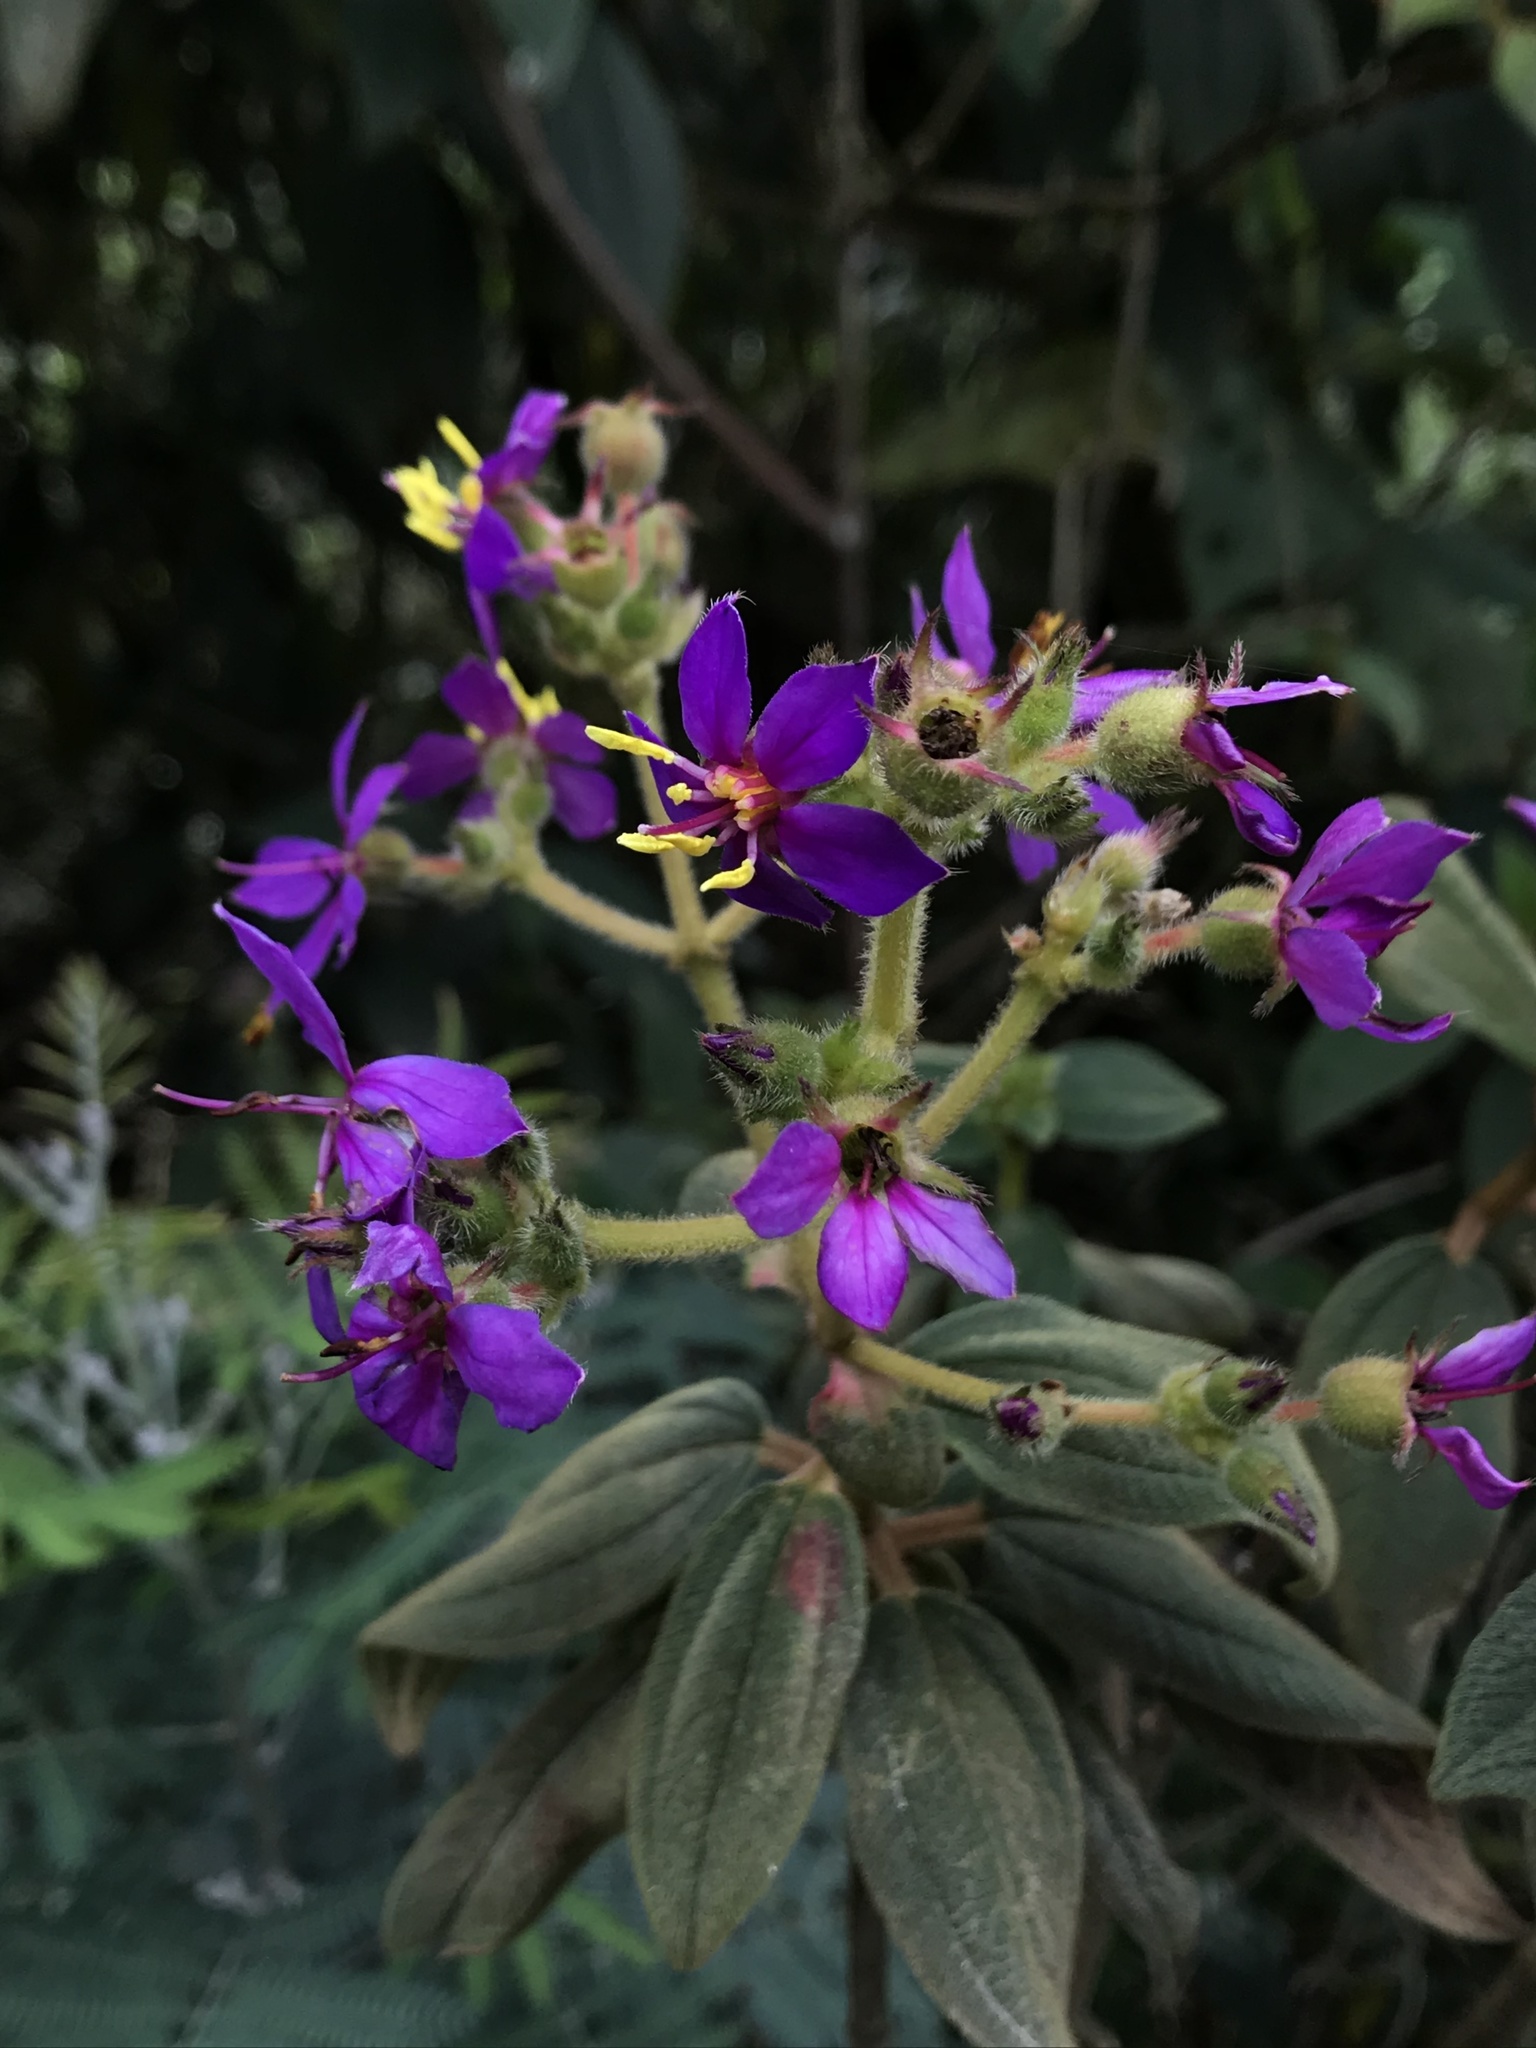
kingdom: Plantae
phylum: Tracheophyta
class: Magnoliopsida
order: Myrtales
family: Melastomataceae
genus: Chaetogastra
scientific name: Chaetogastra mollis
